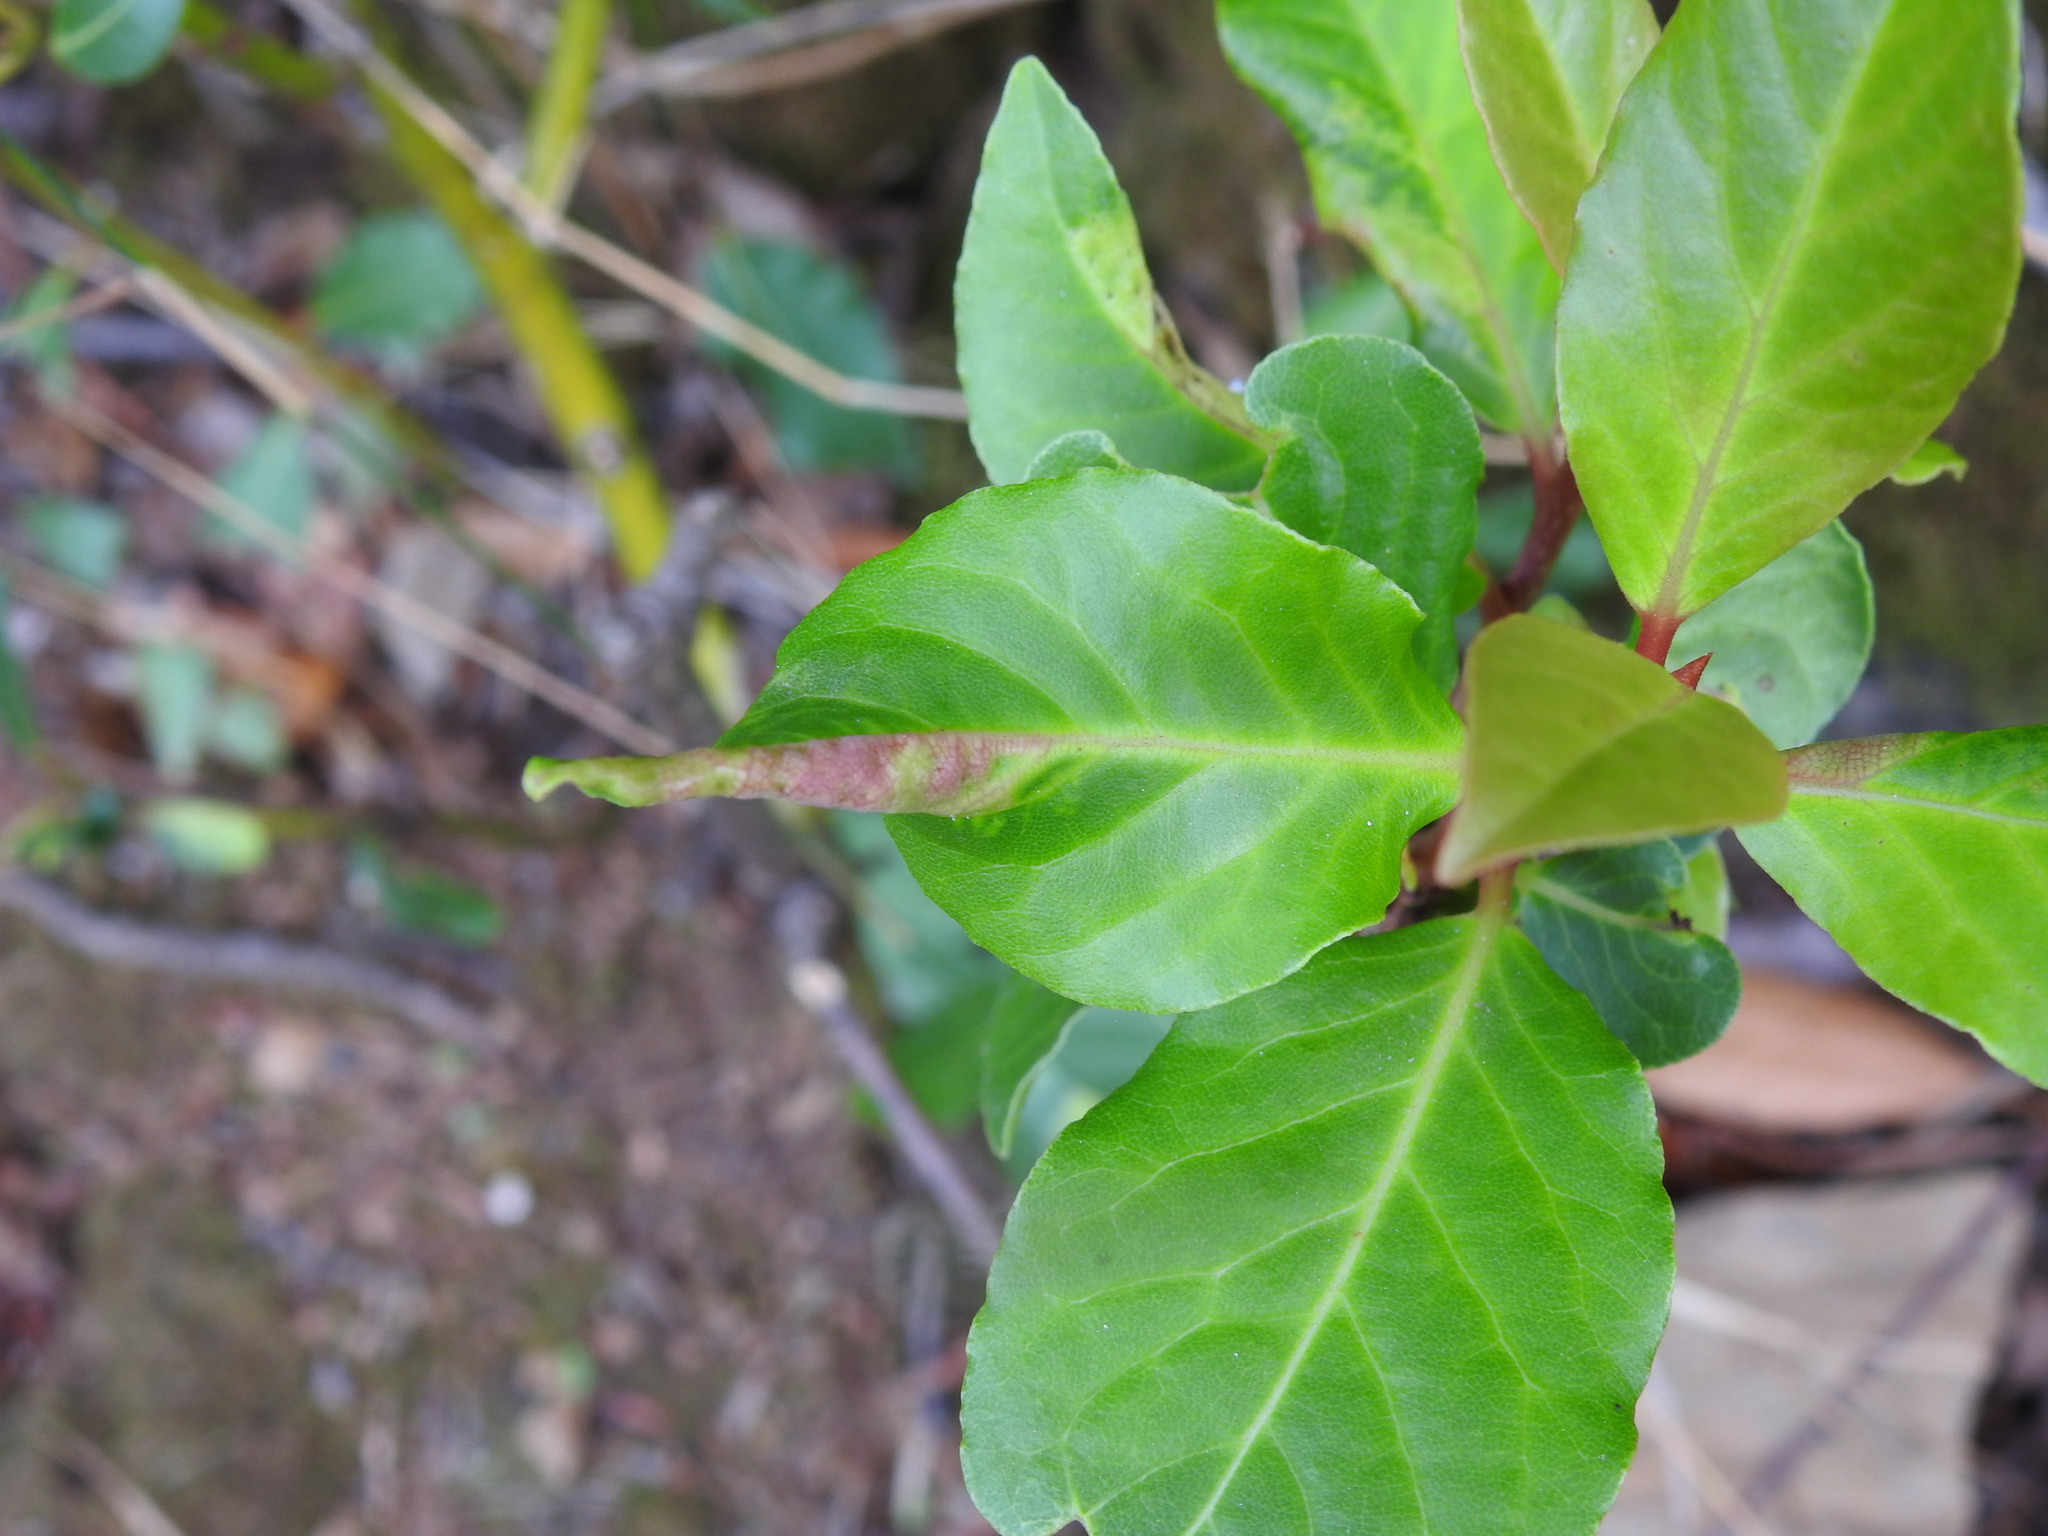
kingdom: Animalia
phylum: Arthropoda
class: Insecta
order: Hemiptera
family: Triozidae
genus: Lauritrioza
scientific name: Lauritrioza alacris
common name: Laurel psyllid
